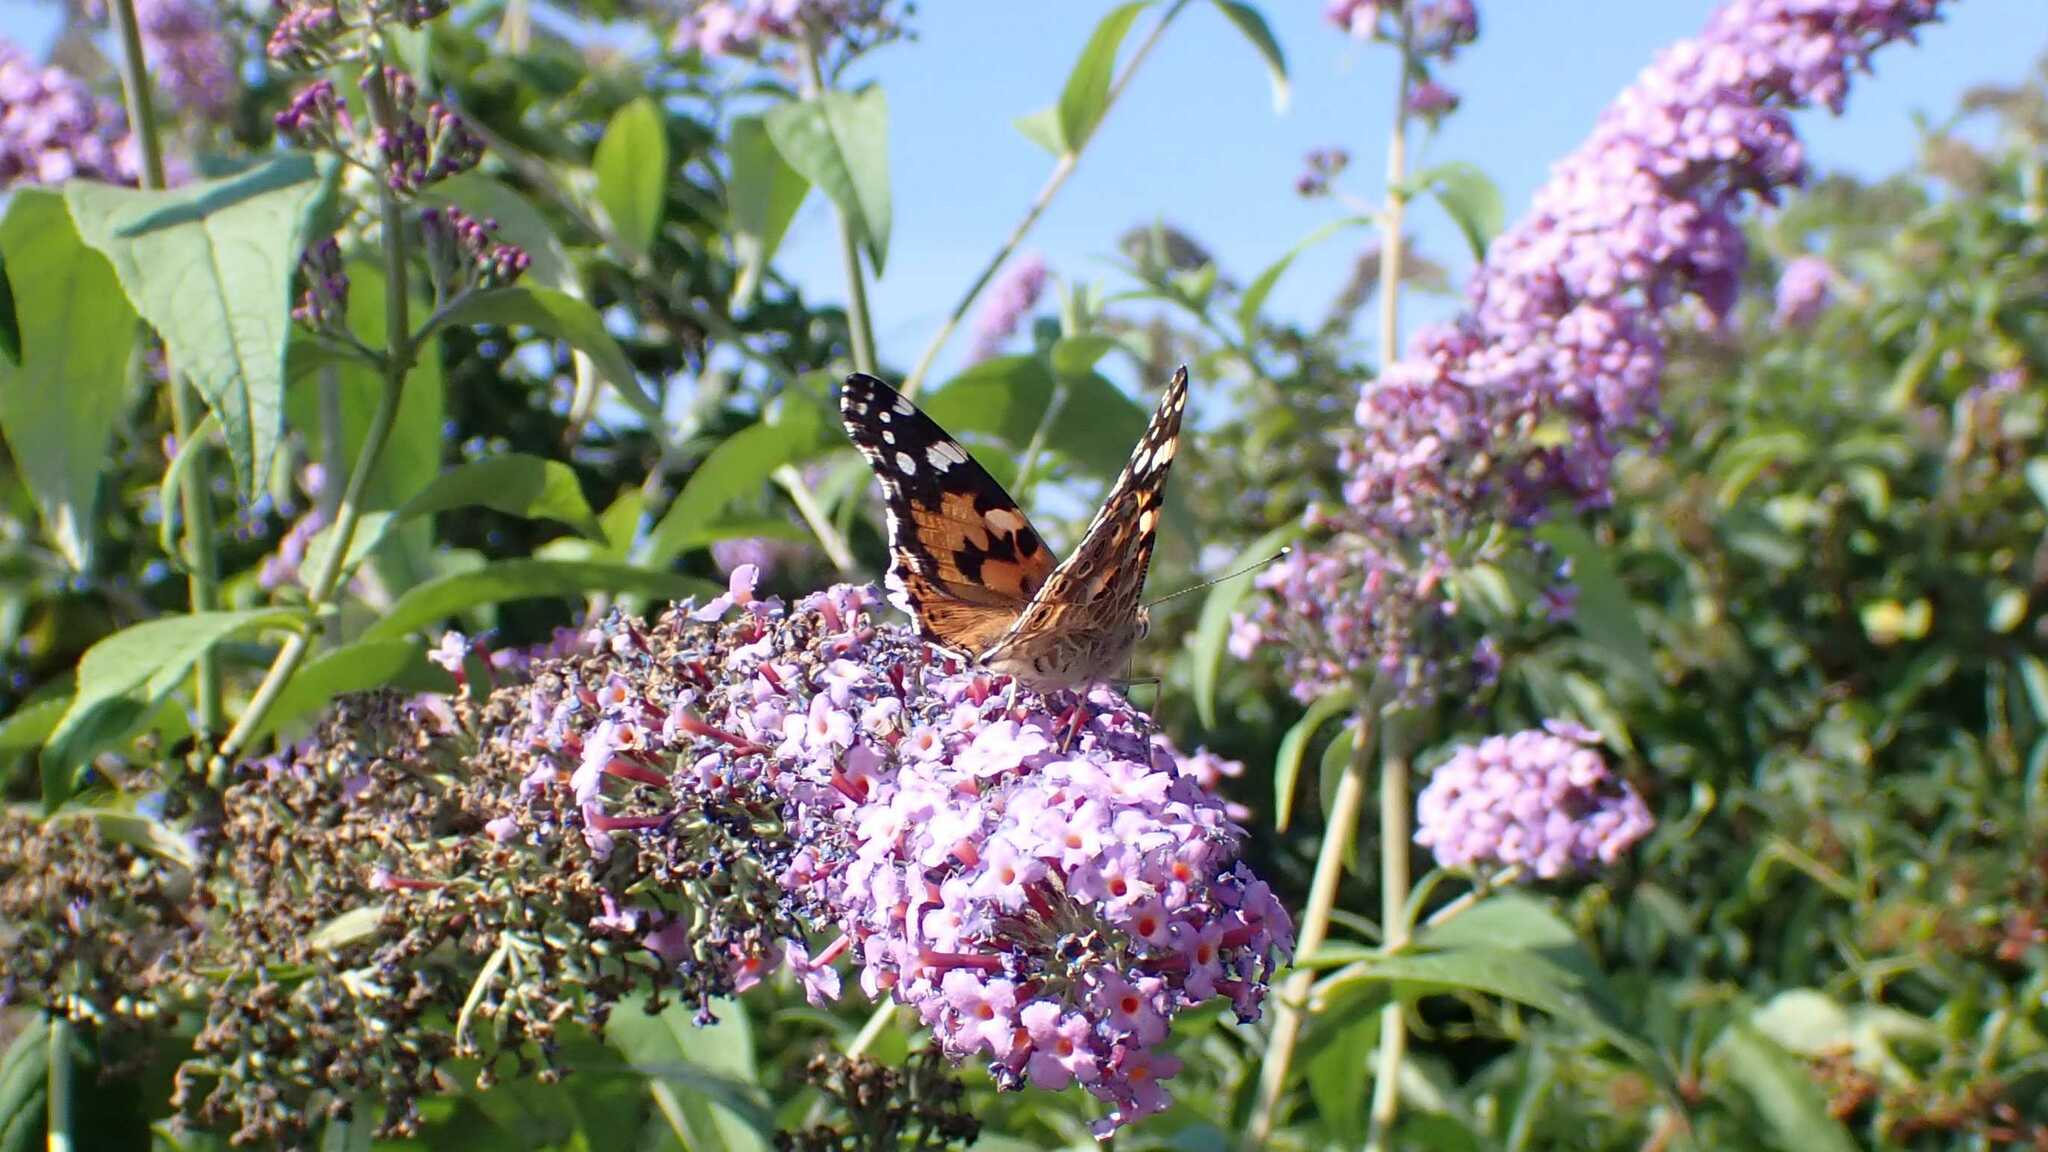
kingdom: Animalia
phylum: Arthropoda
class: Insecta
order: Lepidoptera
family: Nymphalidae
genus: Vanessa
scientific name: Vanessa cardui
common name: Painted lady
